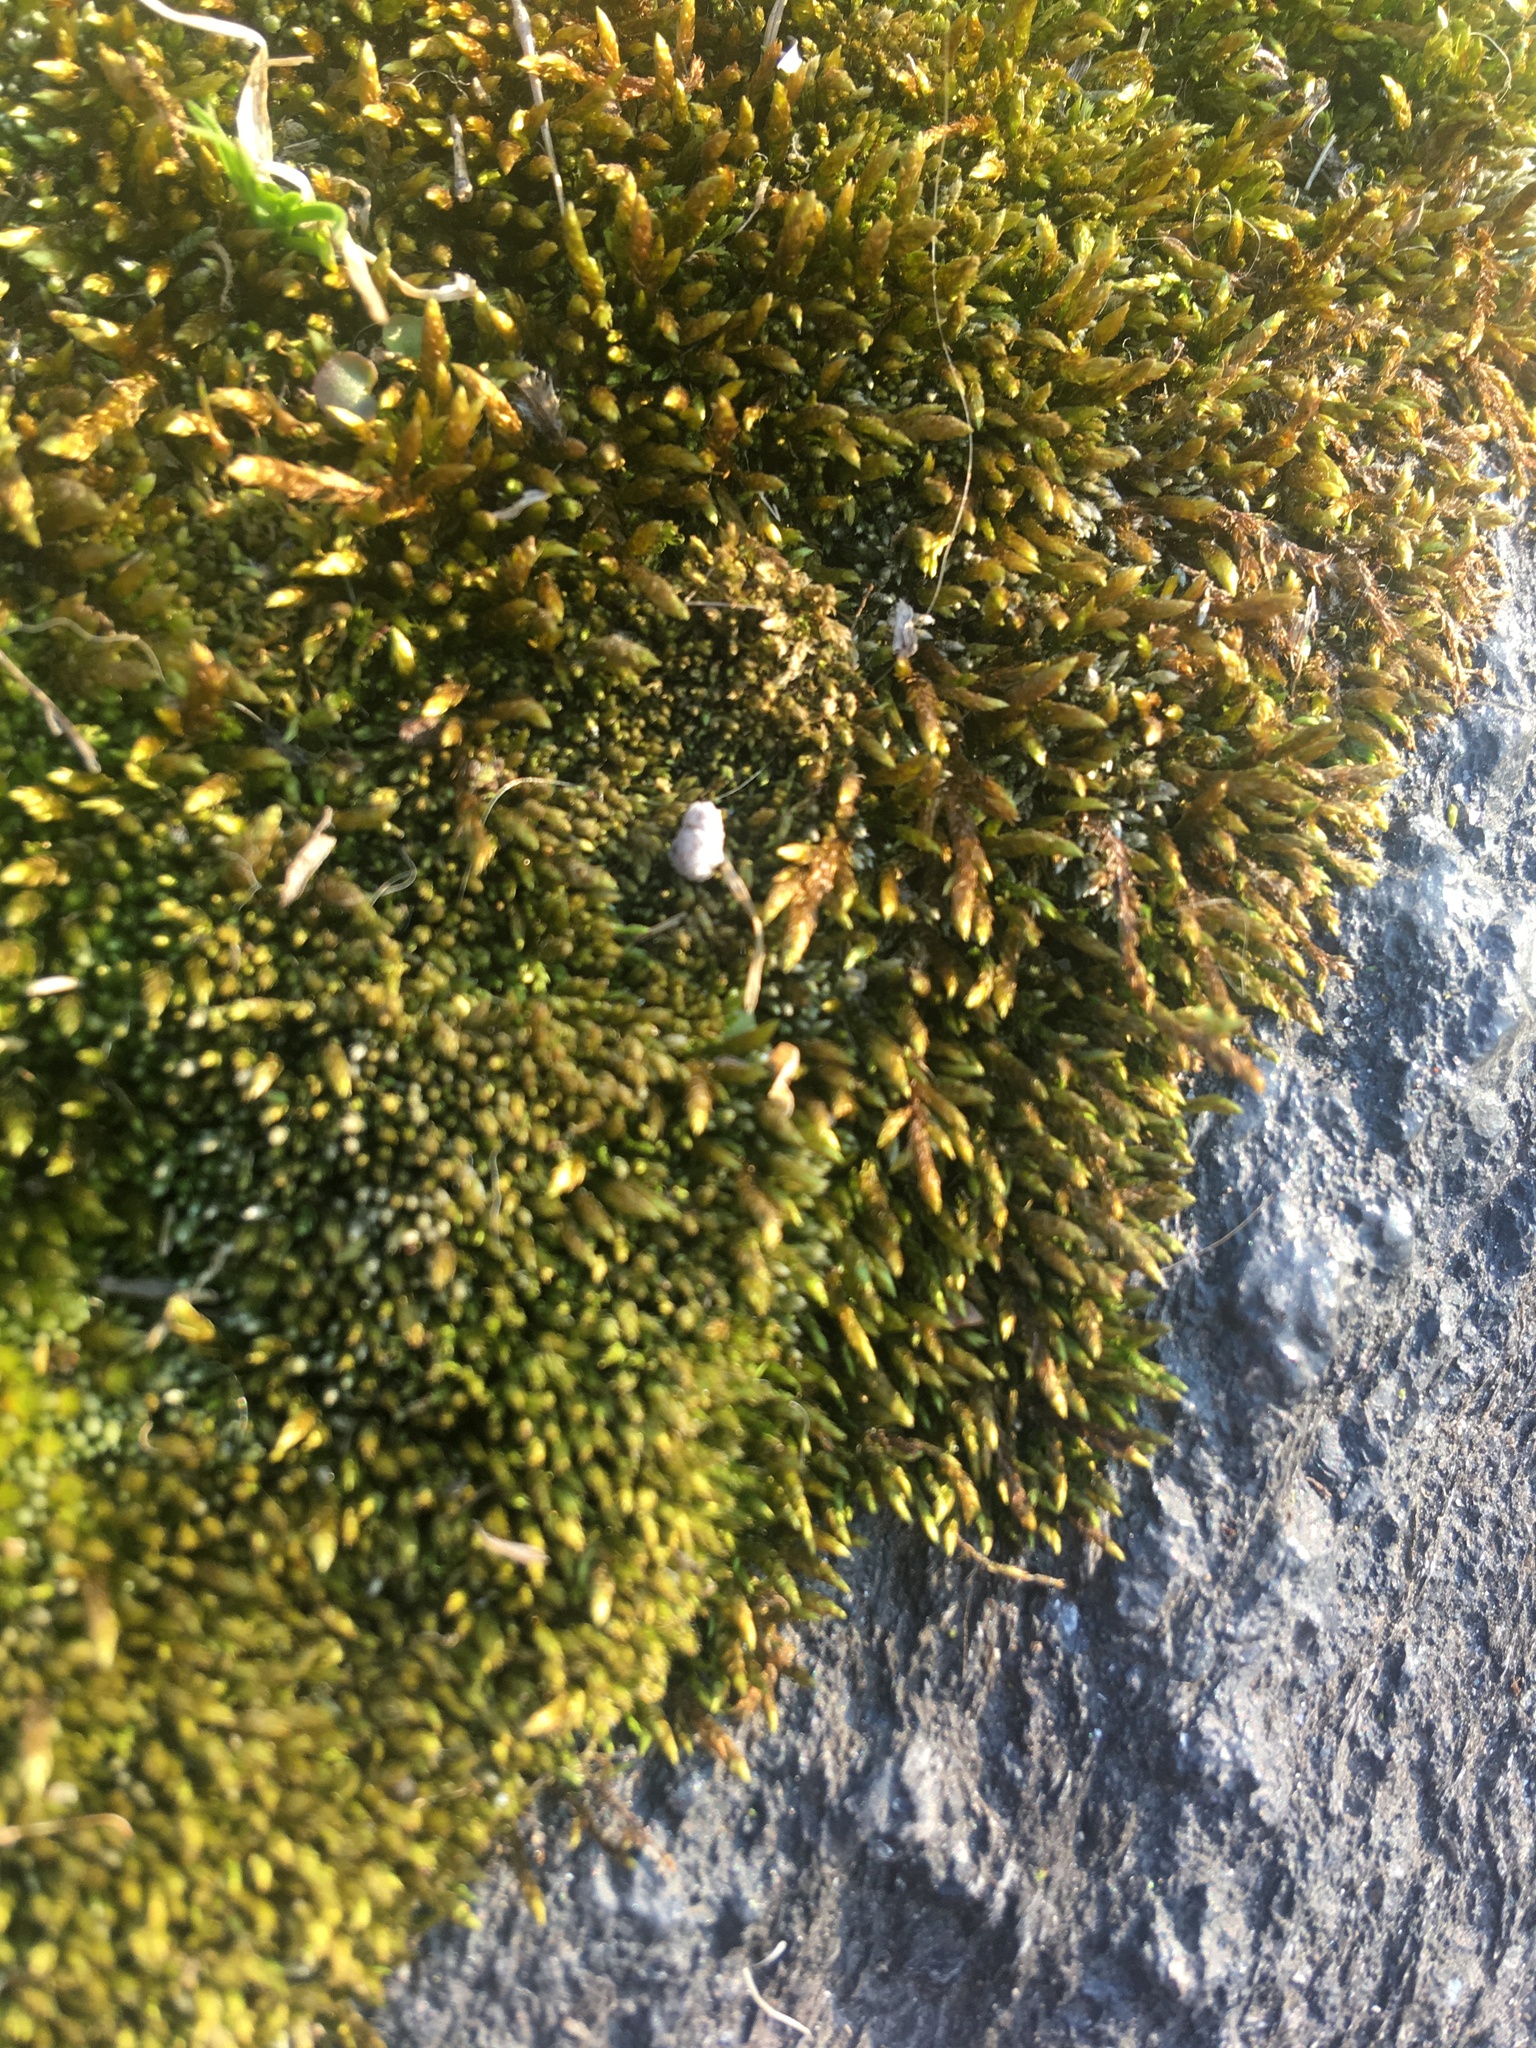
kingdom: Plantae
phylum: Bryophyta
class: Bryopsida
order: Hypnales
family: Entodontaceae
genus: Entodon
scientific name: Entodon seductrix
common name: Round-stemmed entodon moss
